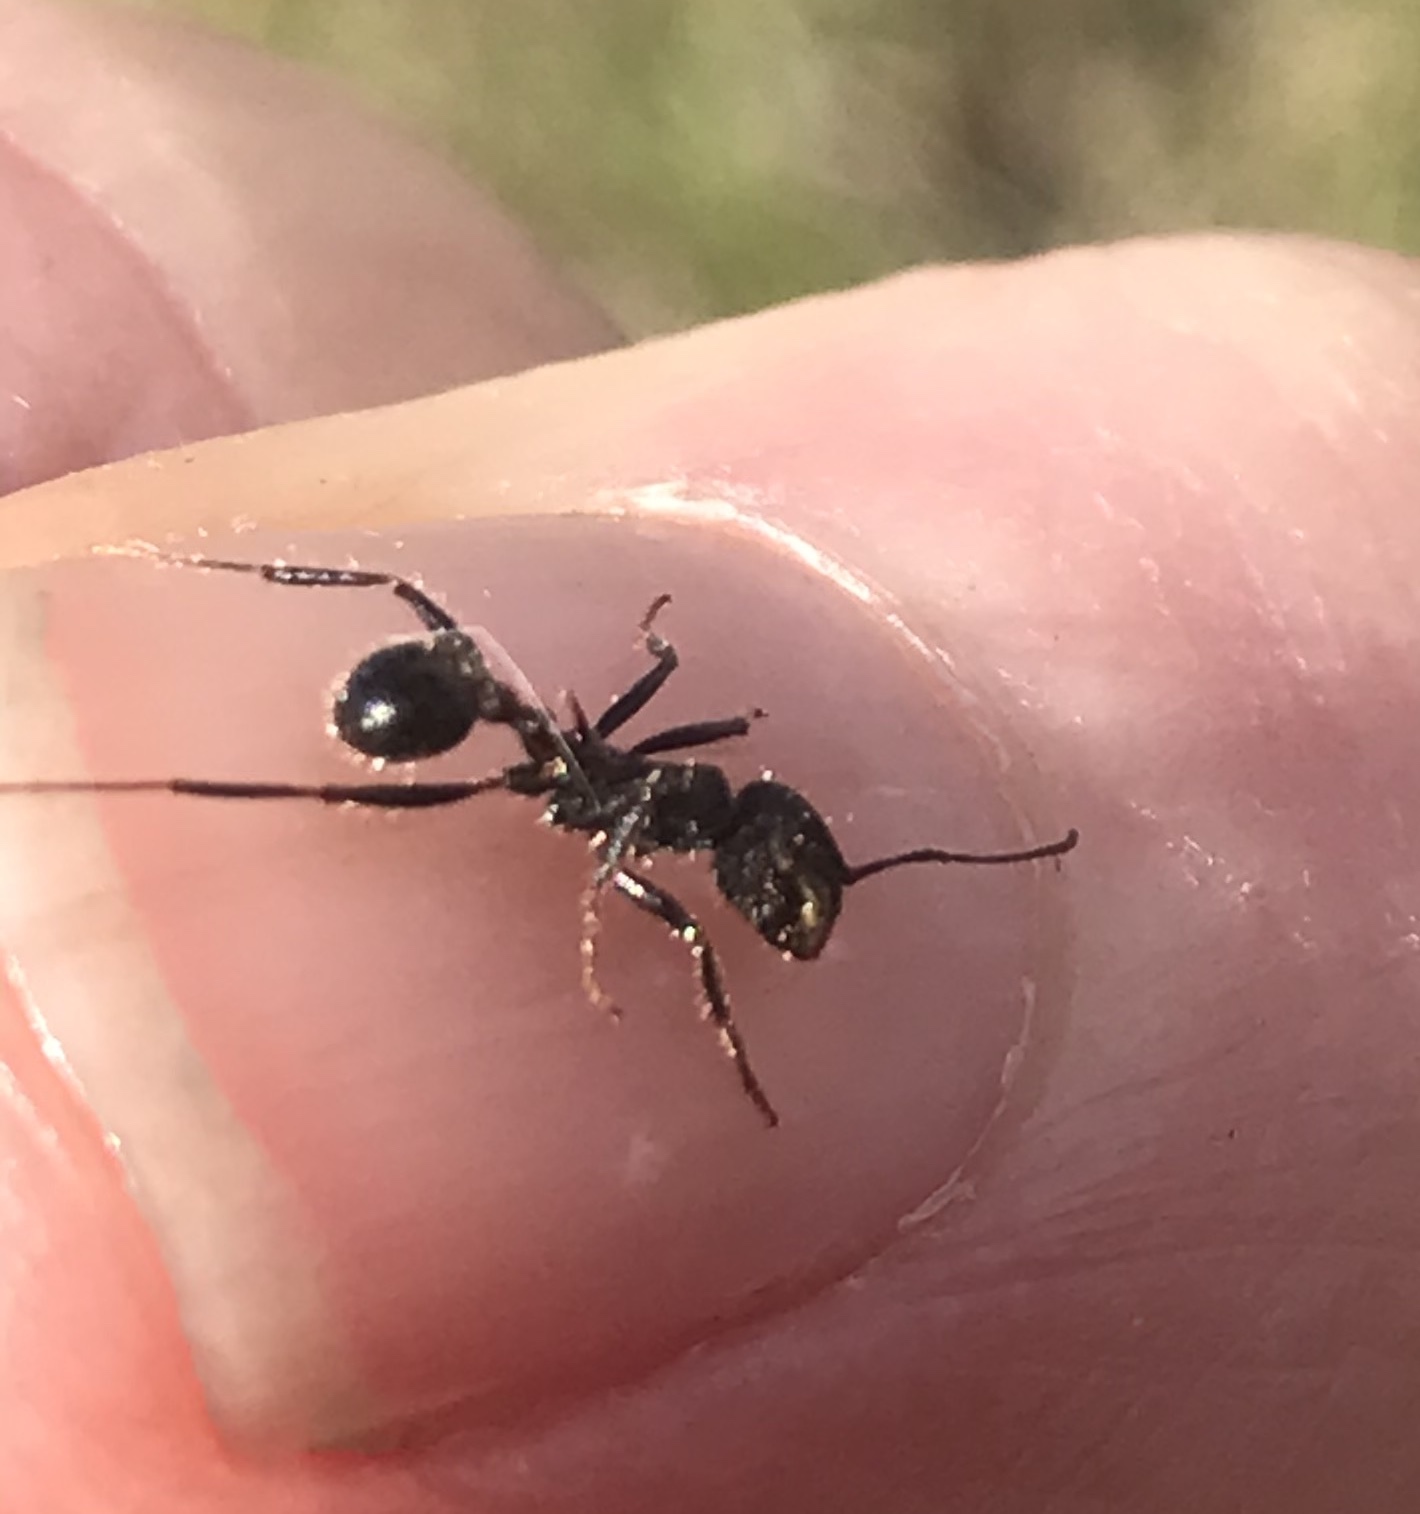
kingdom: Animalia
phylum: Arthropoda
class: Insecta
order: Hymenoptera
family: Formicidae
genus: Veromessor
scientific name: Veromessor andrei
